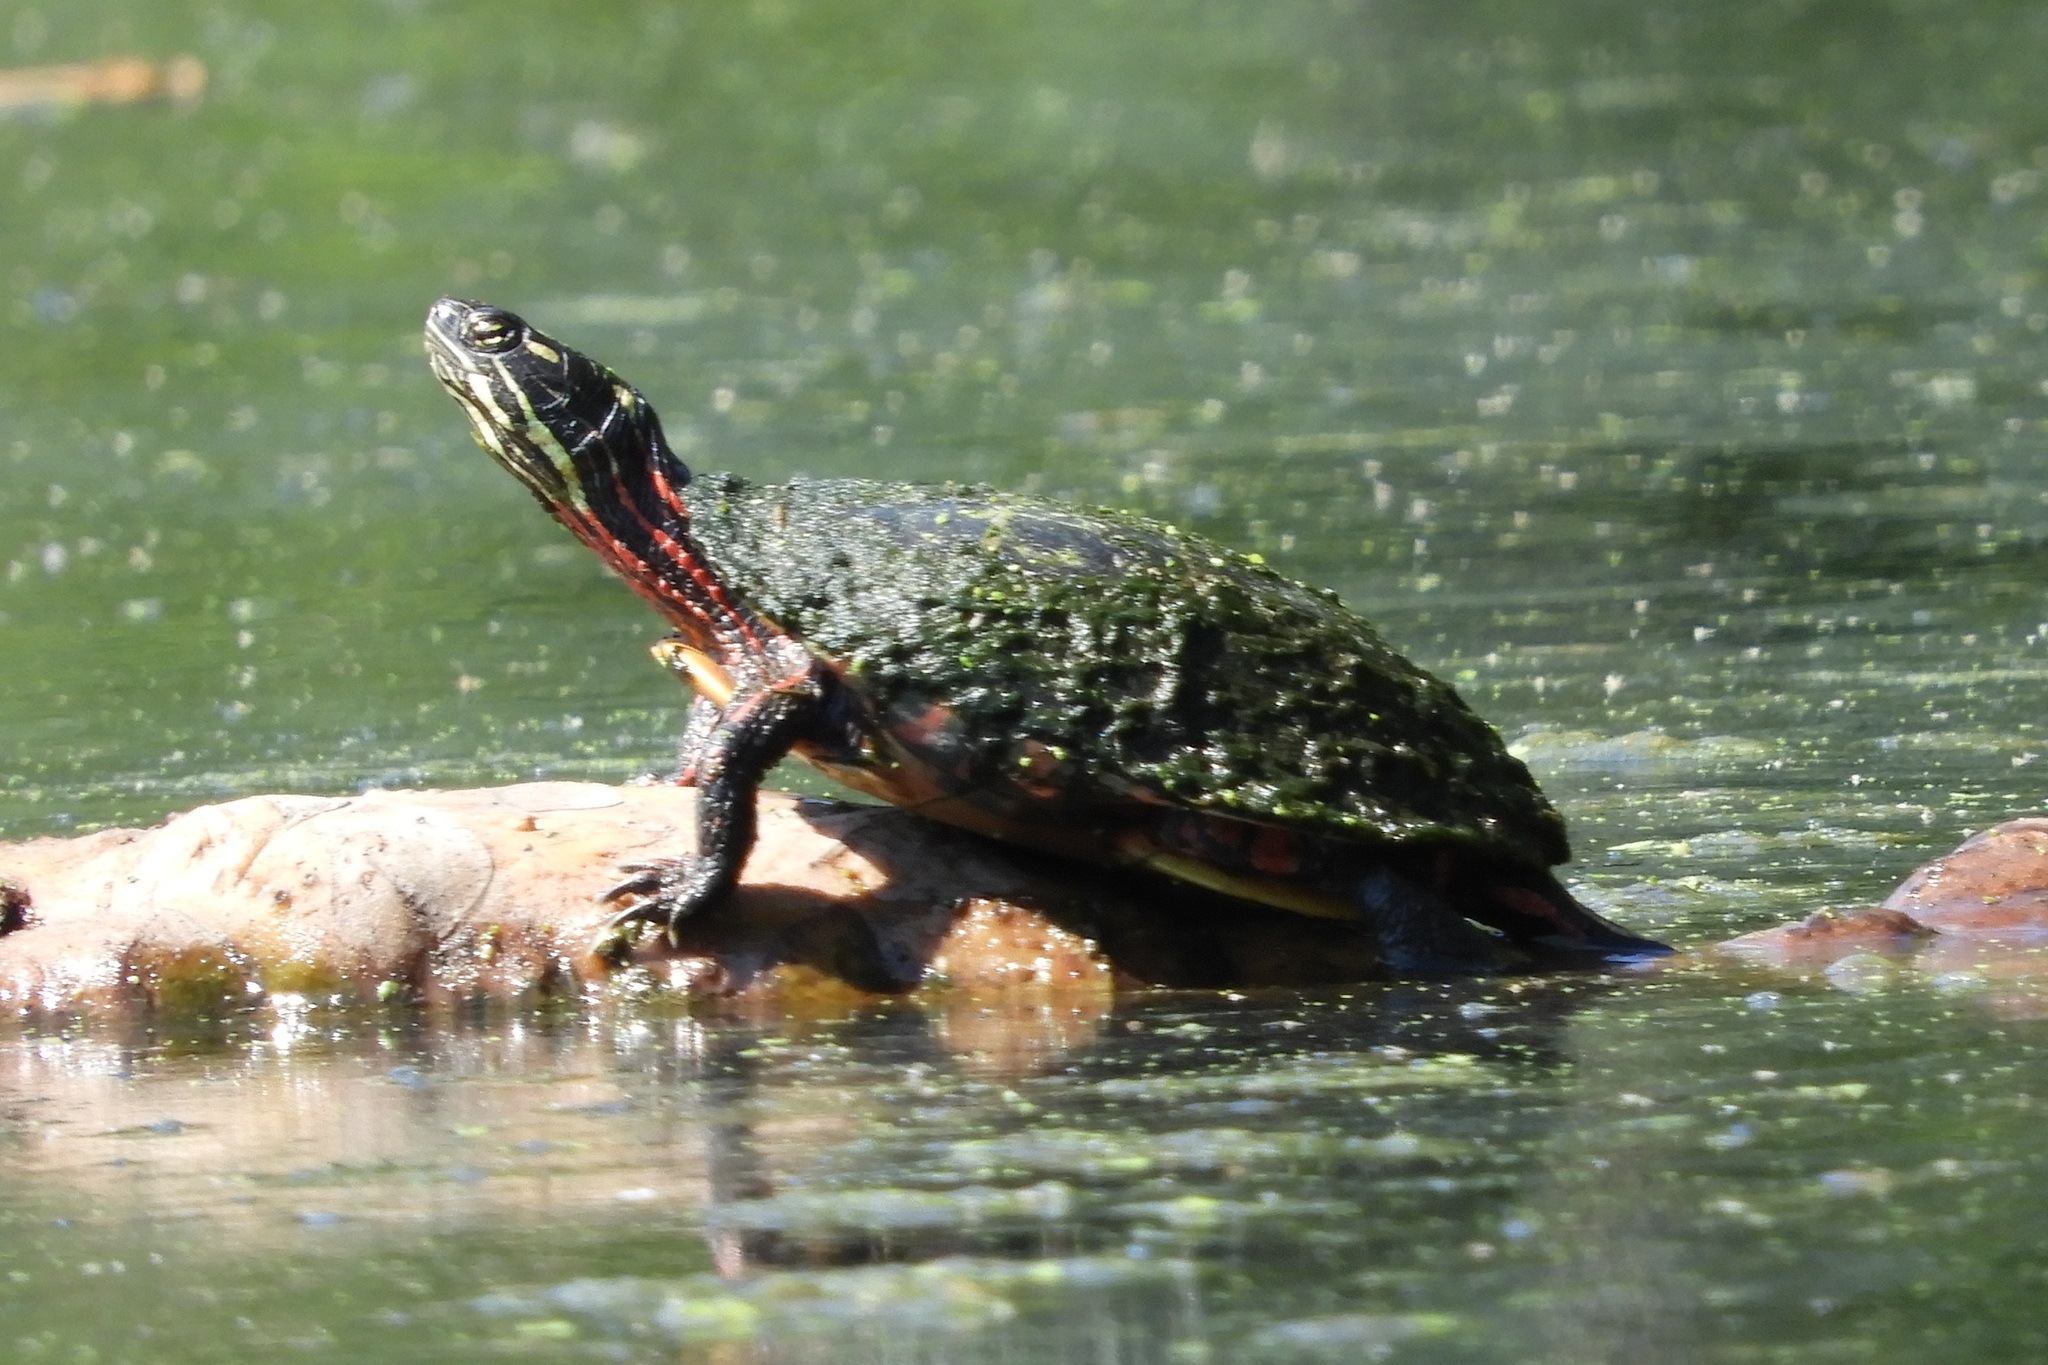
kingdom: Animalia
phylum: Chordata
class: Testudines
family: Emydidae
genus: Chrysemys
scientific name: Chrysemys picta
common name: Painted turtle
